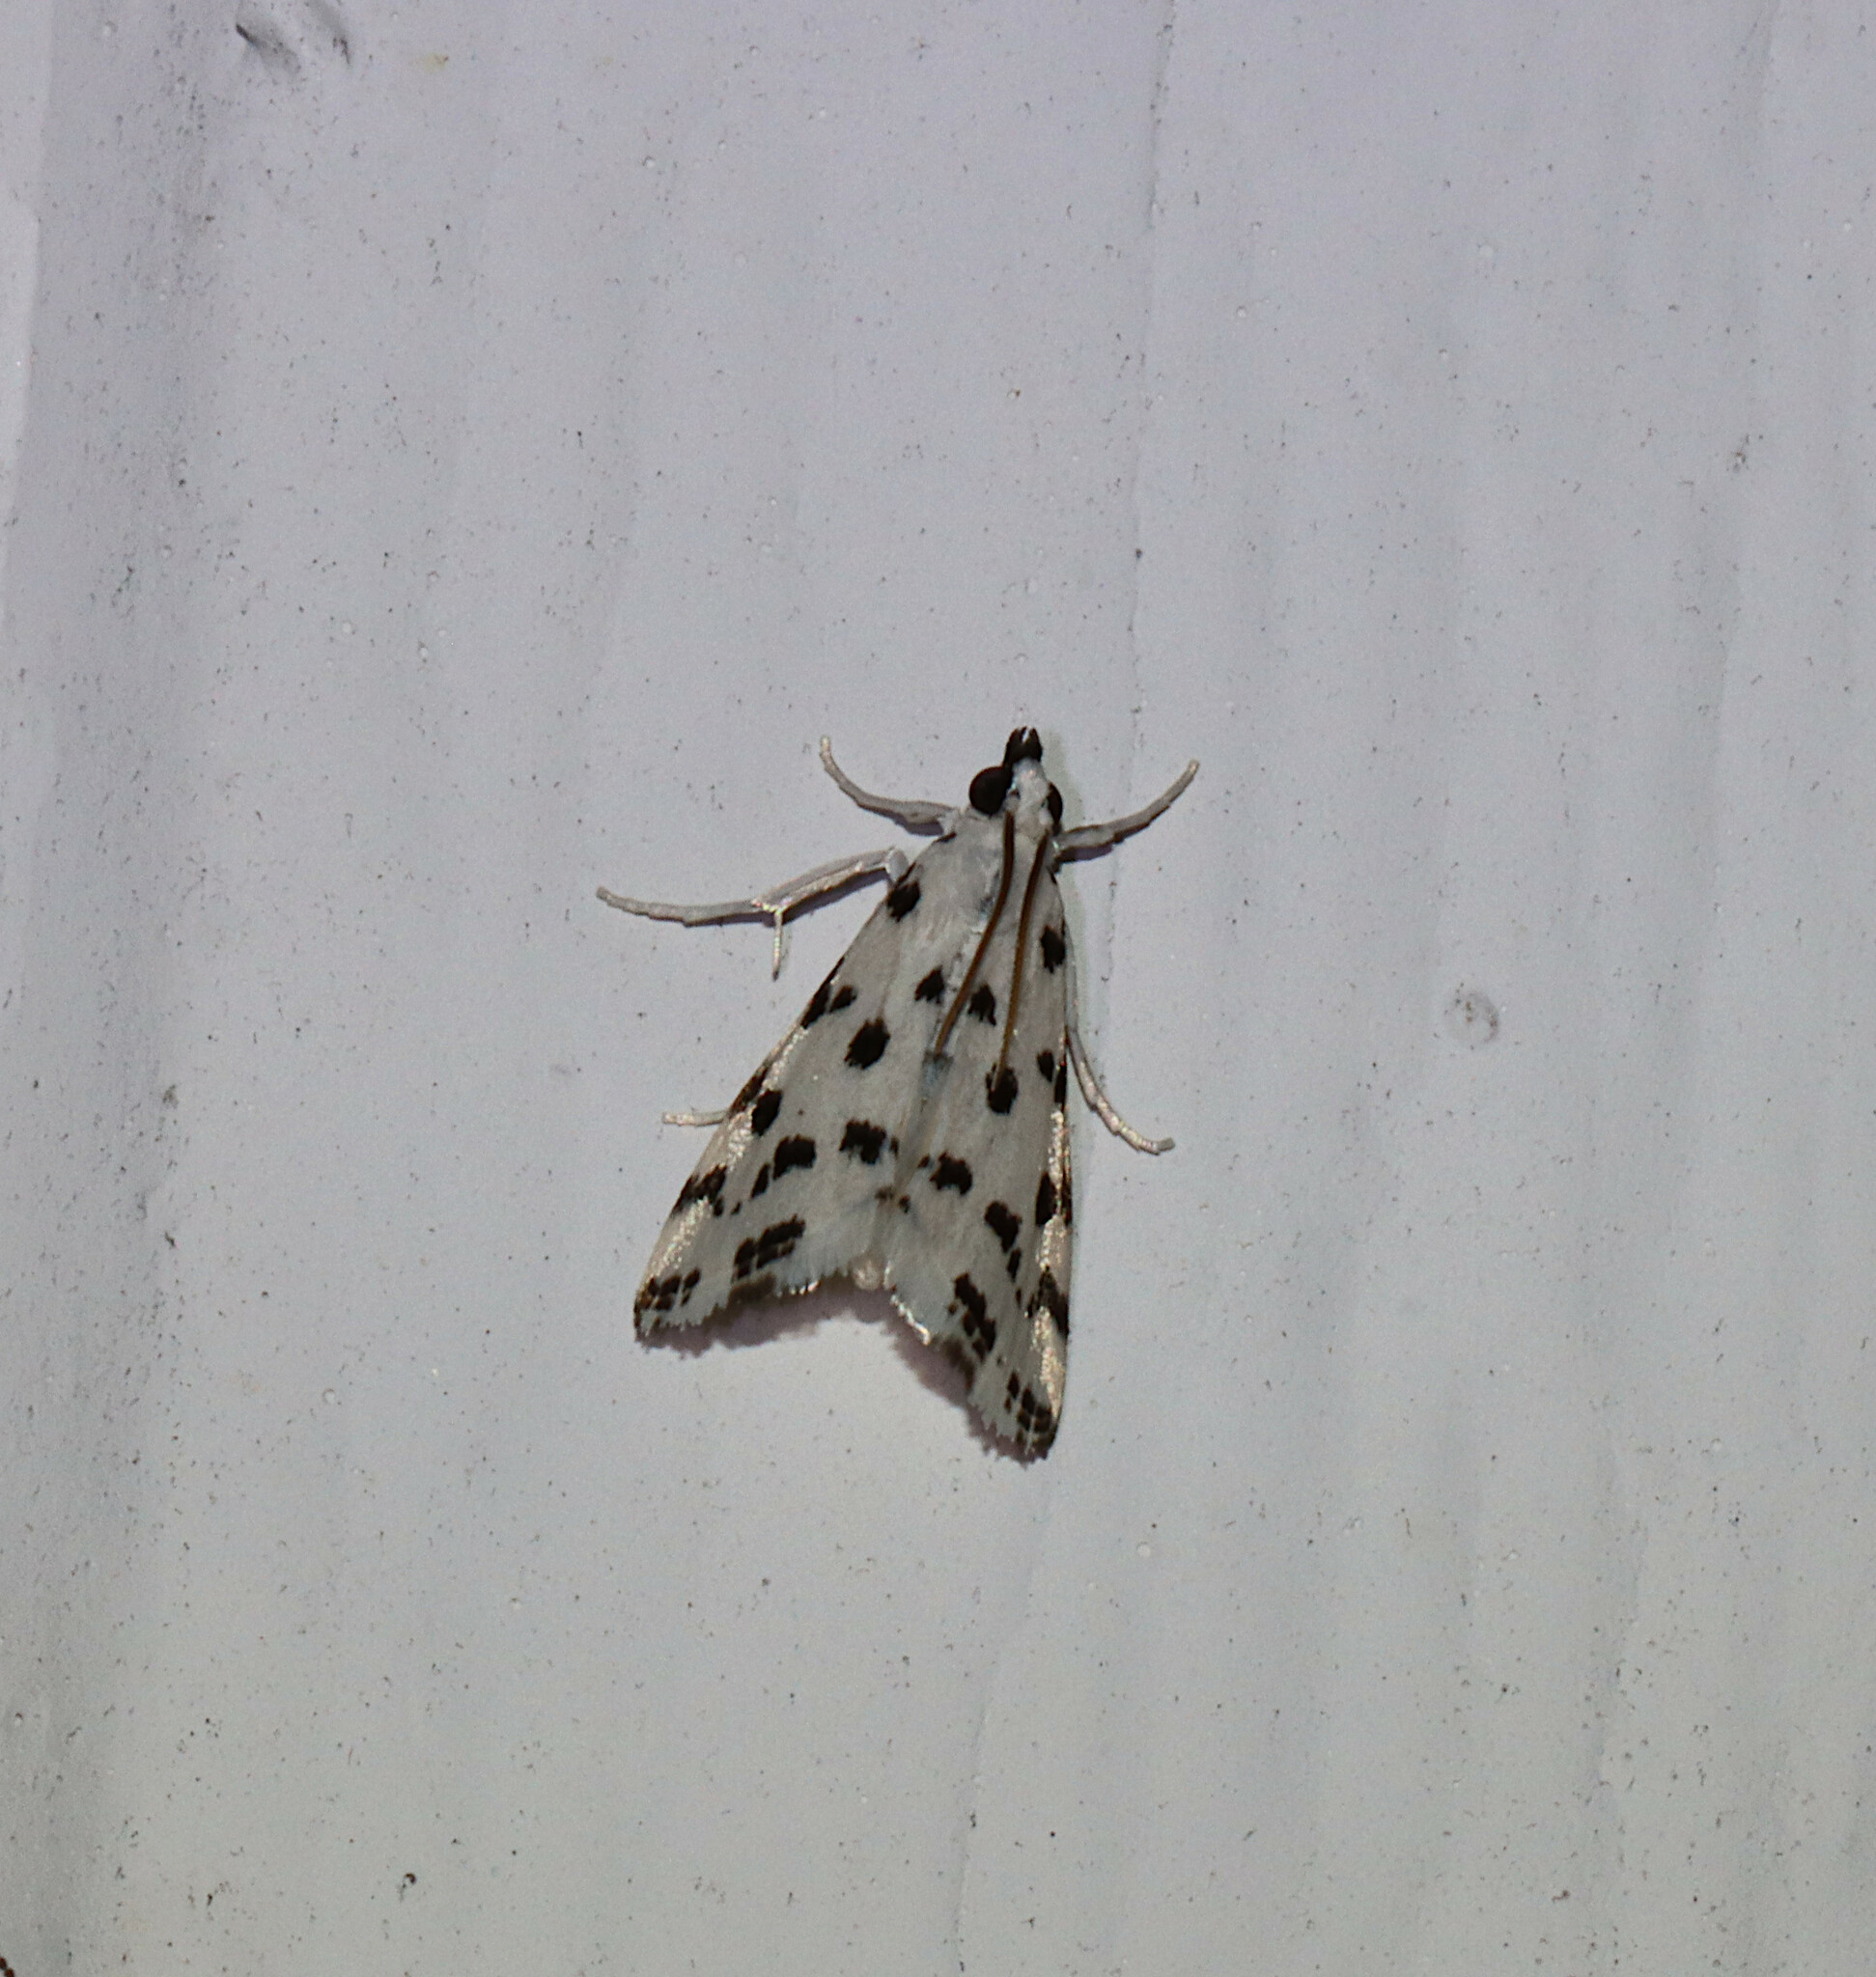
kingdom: Animalia
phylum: Arthropoda
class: Insecta
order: Lepidoptera
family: Crambidae
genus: Eustixia
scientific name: Eustixia pupula
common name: American cabbage pearl
